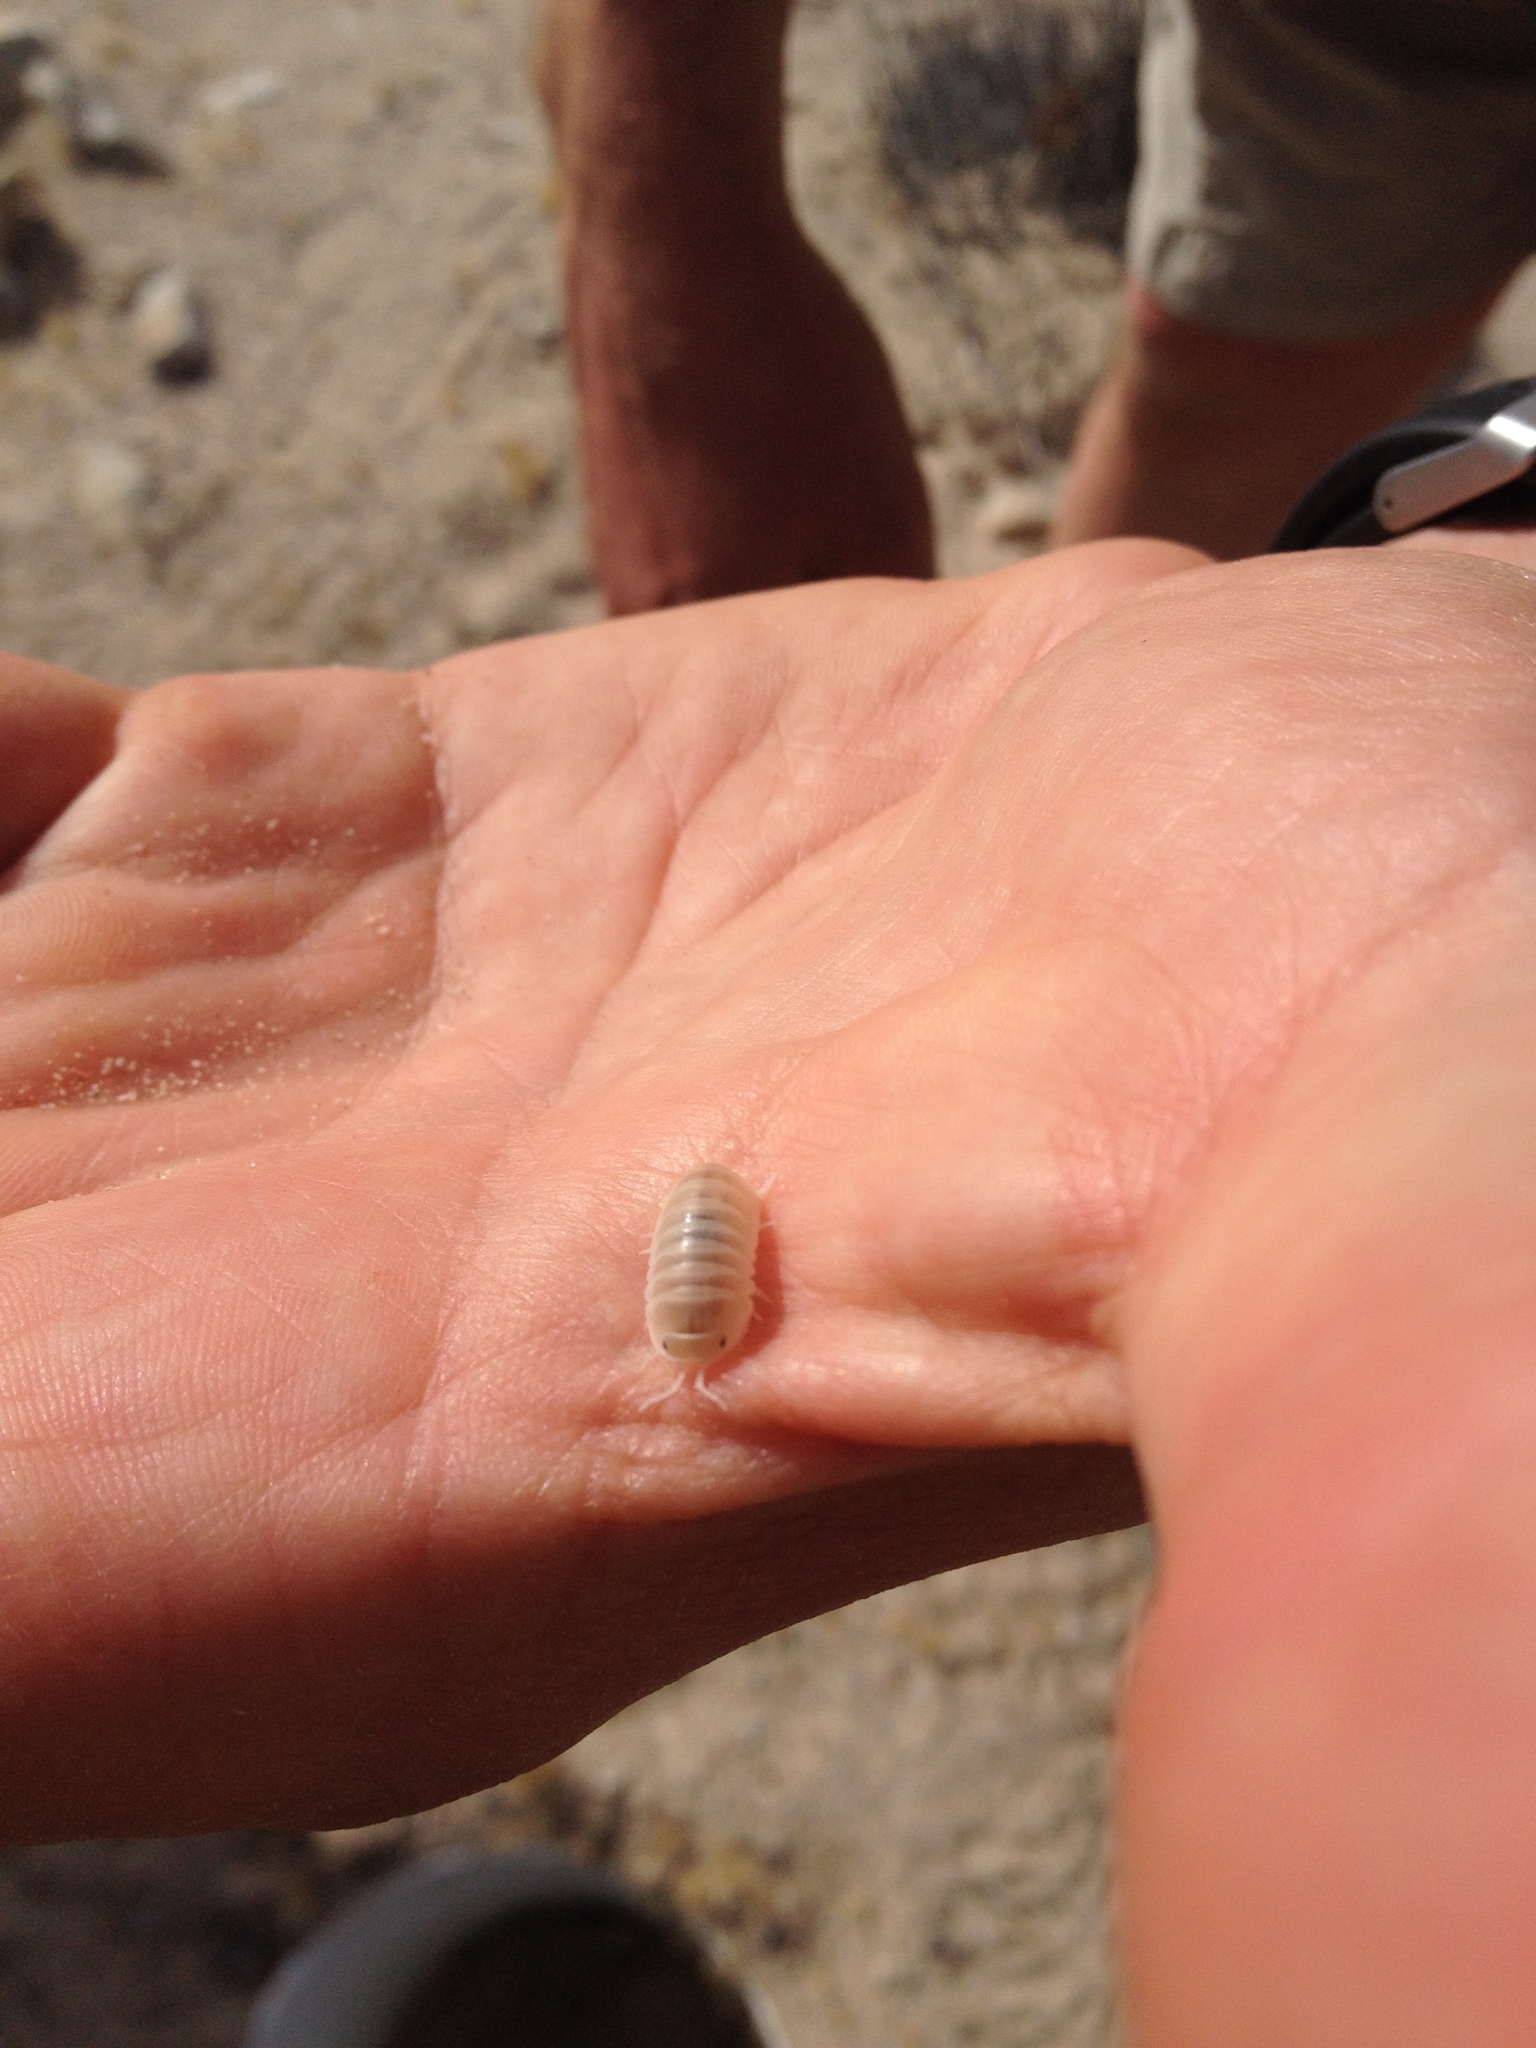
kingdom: Animalia
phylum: Arthropoda
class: Malacostraca
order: Isopoda
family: Armadillidae
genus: Cubaris
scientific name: Cubaris benitensis
